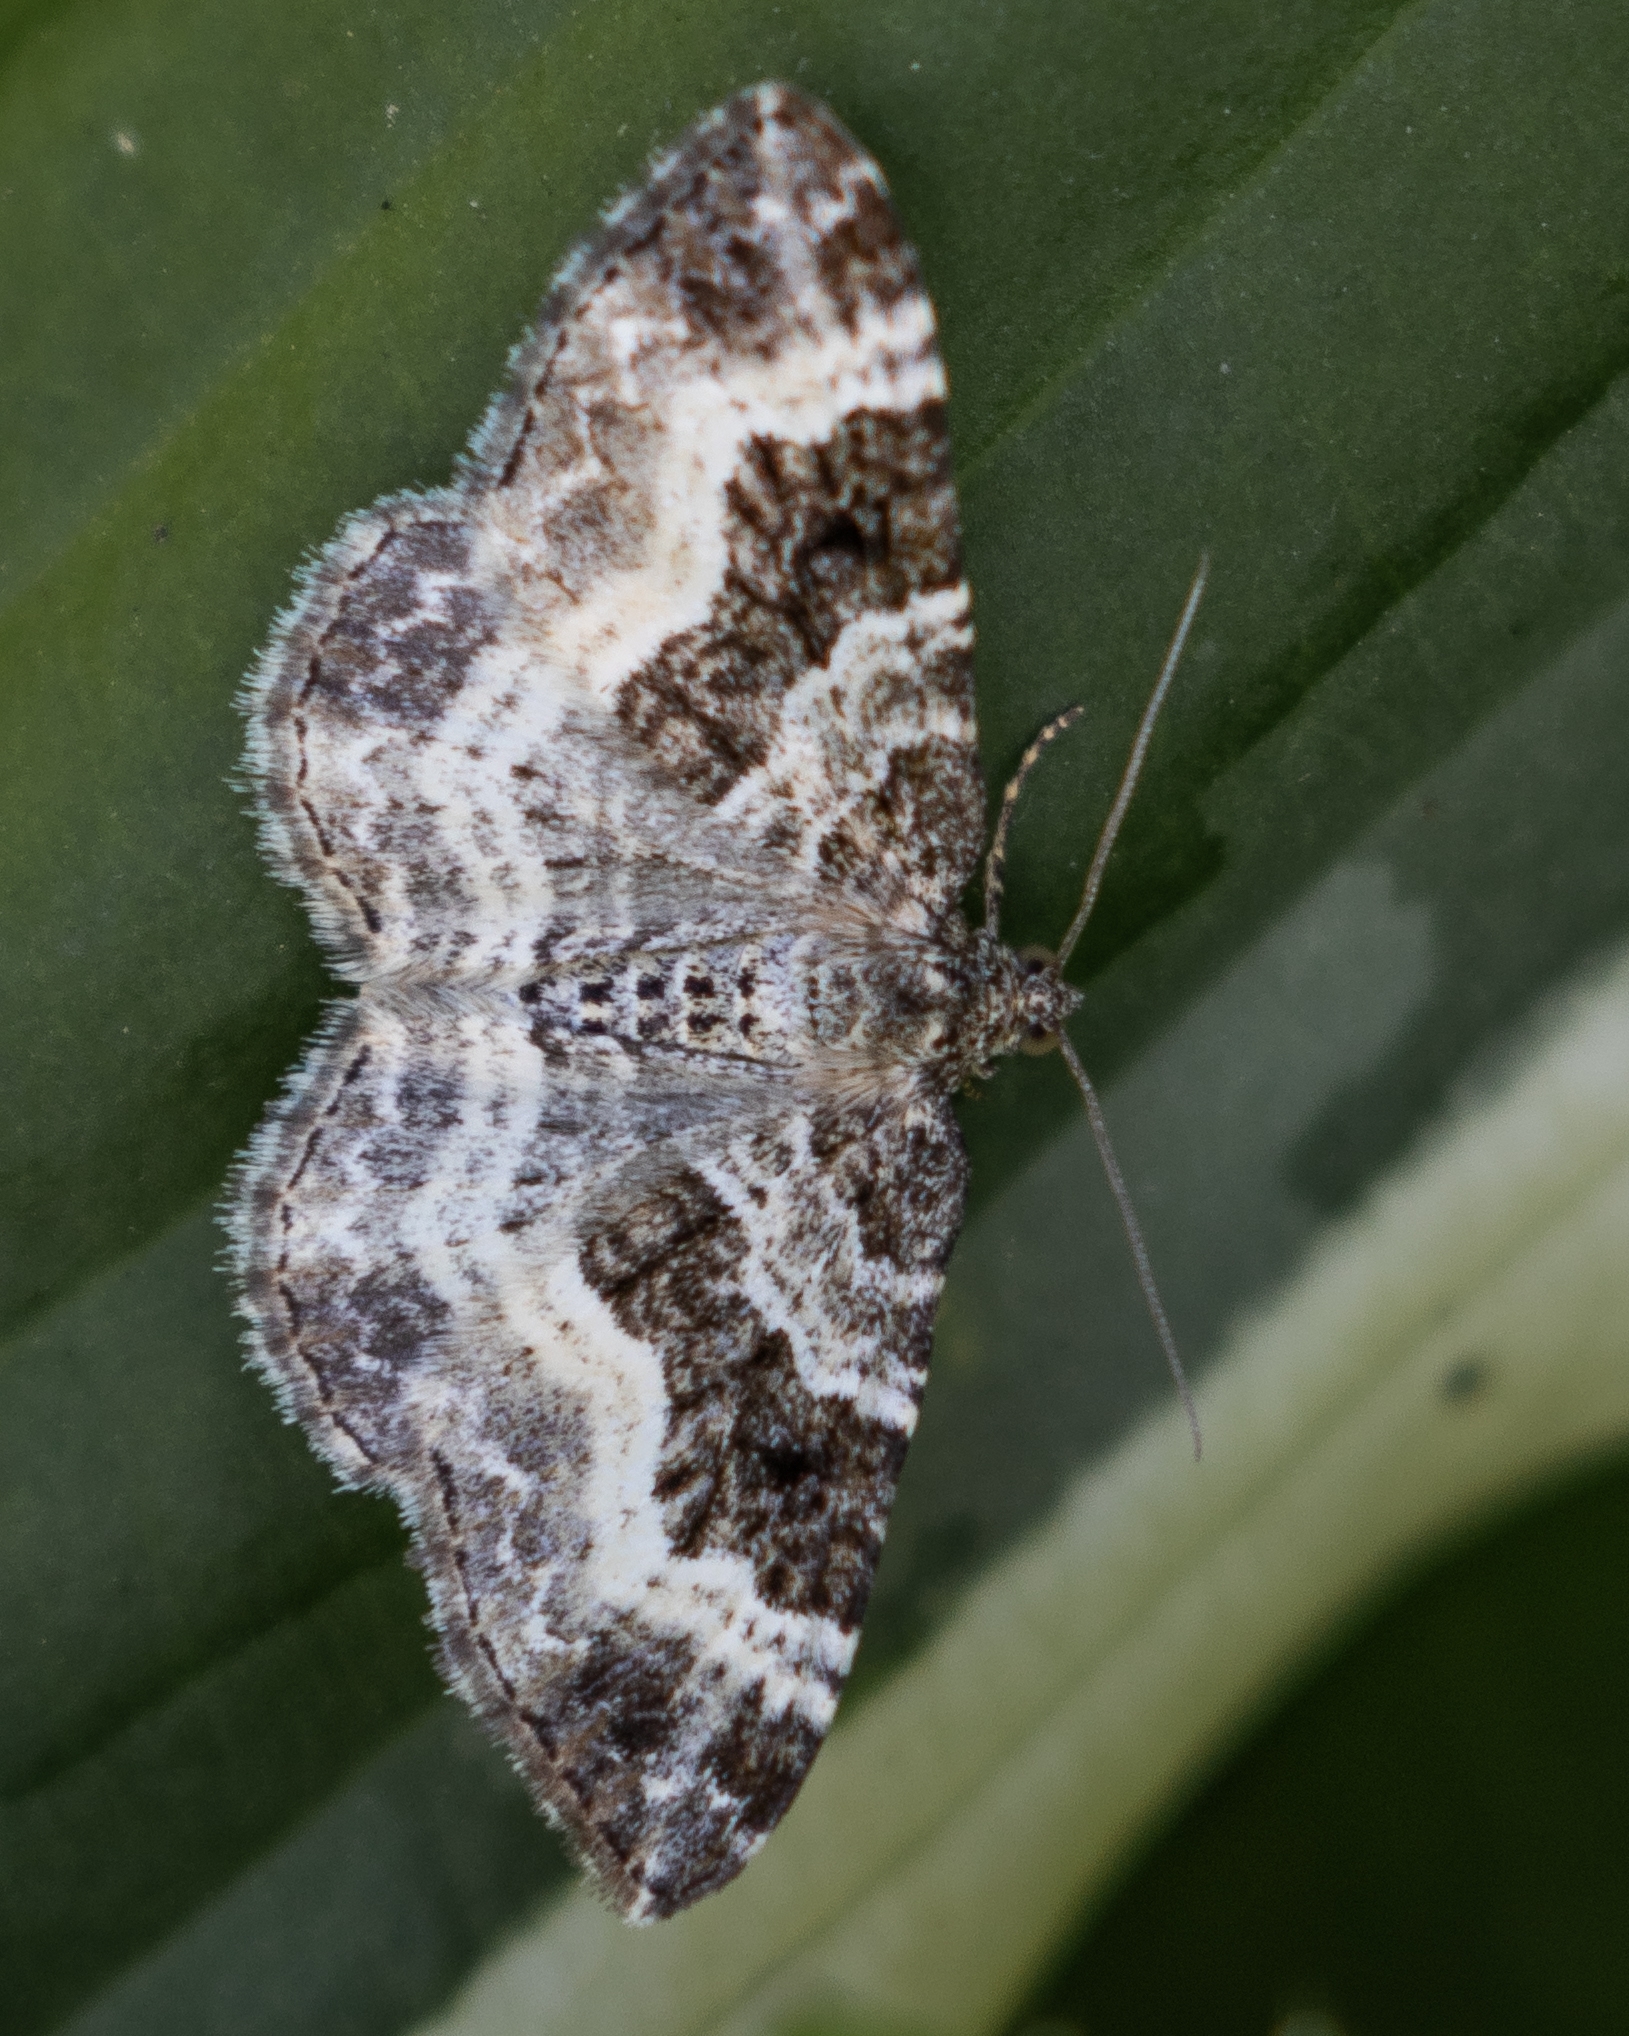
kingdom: Animalia
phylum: Arthropoda
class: Insecta
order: Lepidoptera
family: Geometridae
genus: Epirrhoe
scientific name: Epirrhoe alternata
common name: Common carpet
